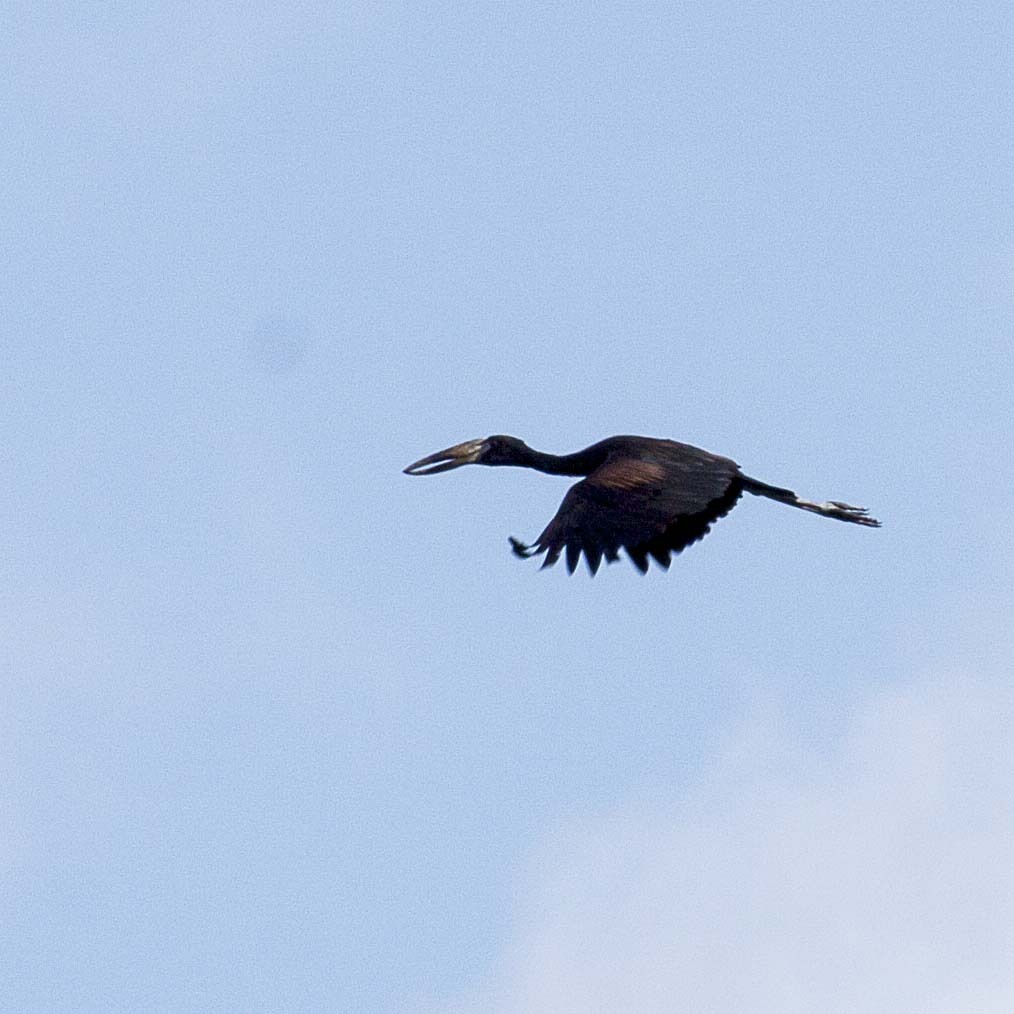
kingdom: Animalia
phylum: Chordata
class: Aves
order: Ciconiiformes
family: Ciconiidae
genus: Anastomus
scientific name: Anastomus lamelligerus
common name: African openbill
